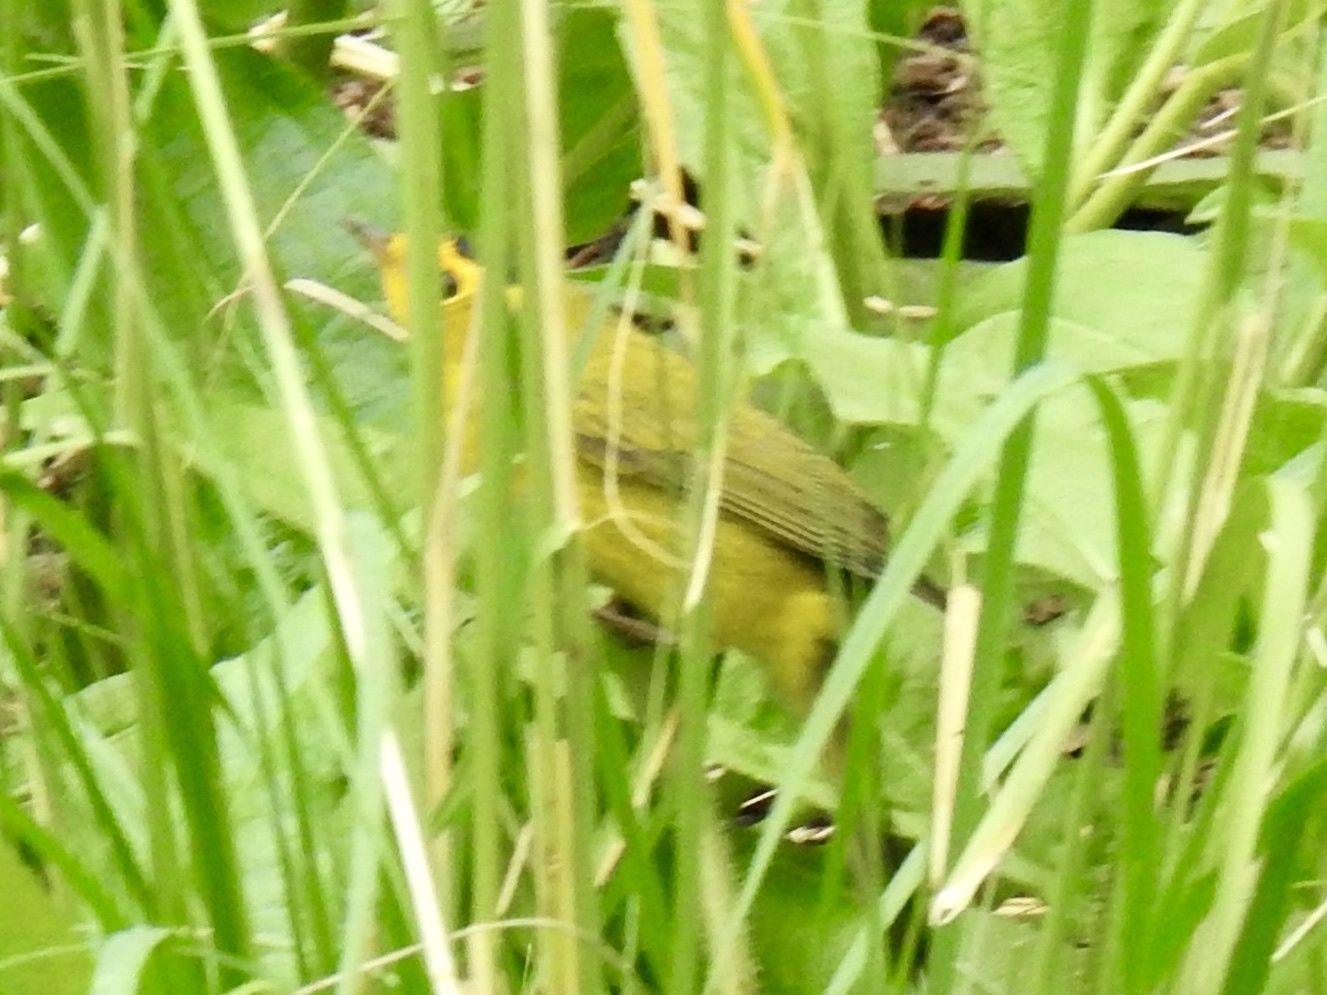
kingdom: Animalia
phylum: Chordata
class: Aves
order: Passeriformes
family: Parulidae
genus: Cardellina
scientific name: Cardellina pusilla
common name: Wilson's warbler
